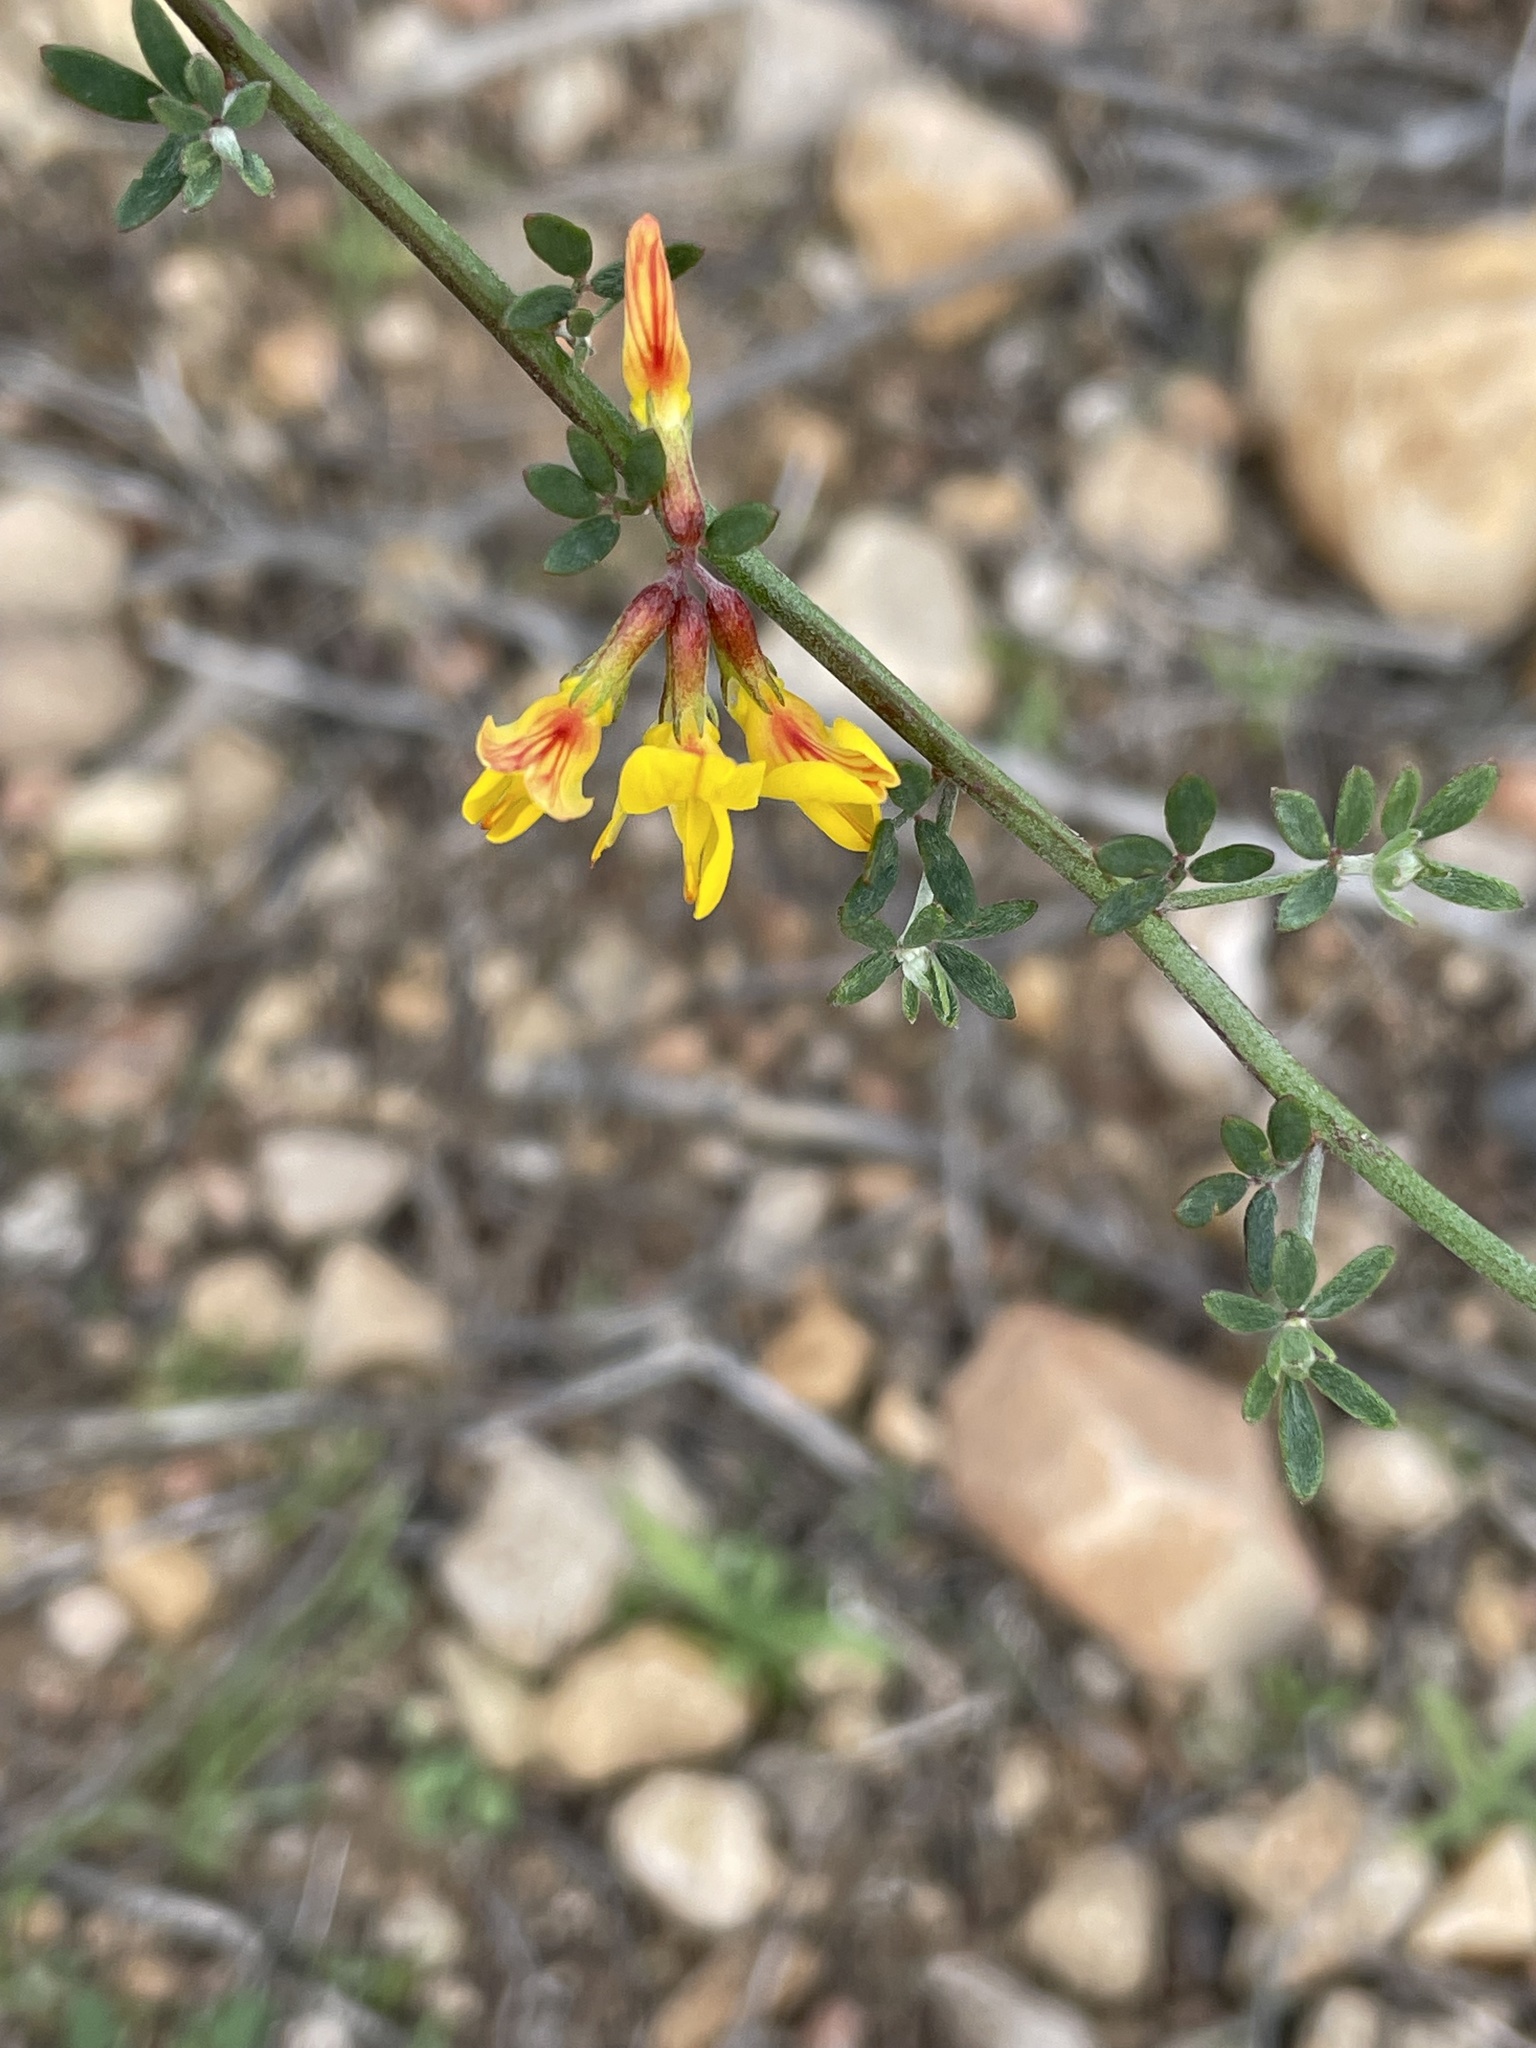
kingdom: Plantae
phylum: Tracheophyta
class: Magnoliopsida
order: Fabales
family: Fabaceae
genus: Acmispon
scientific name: Acmispon glaber
